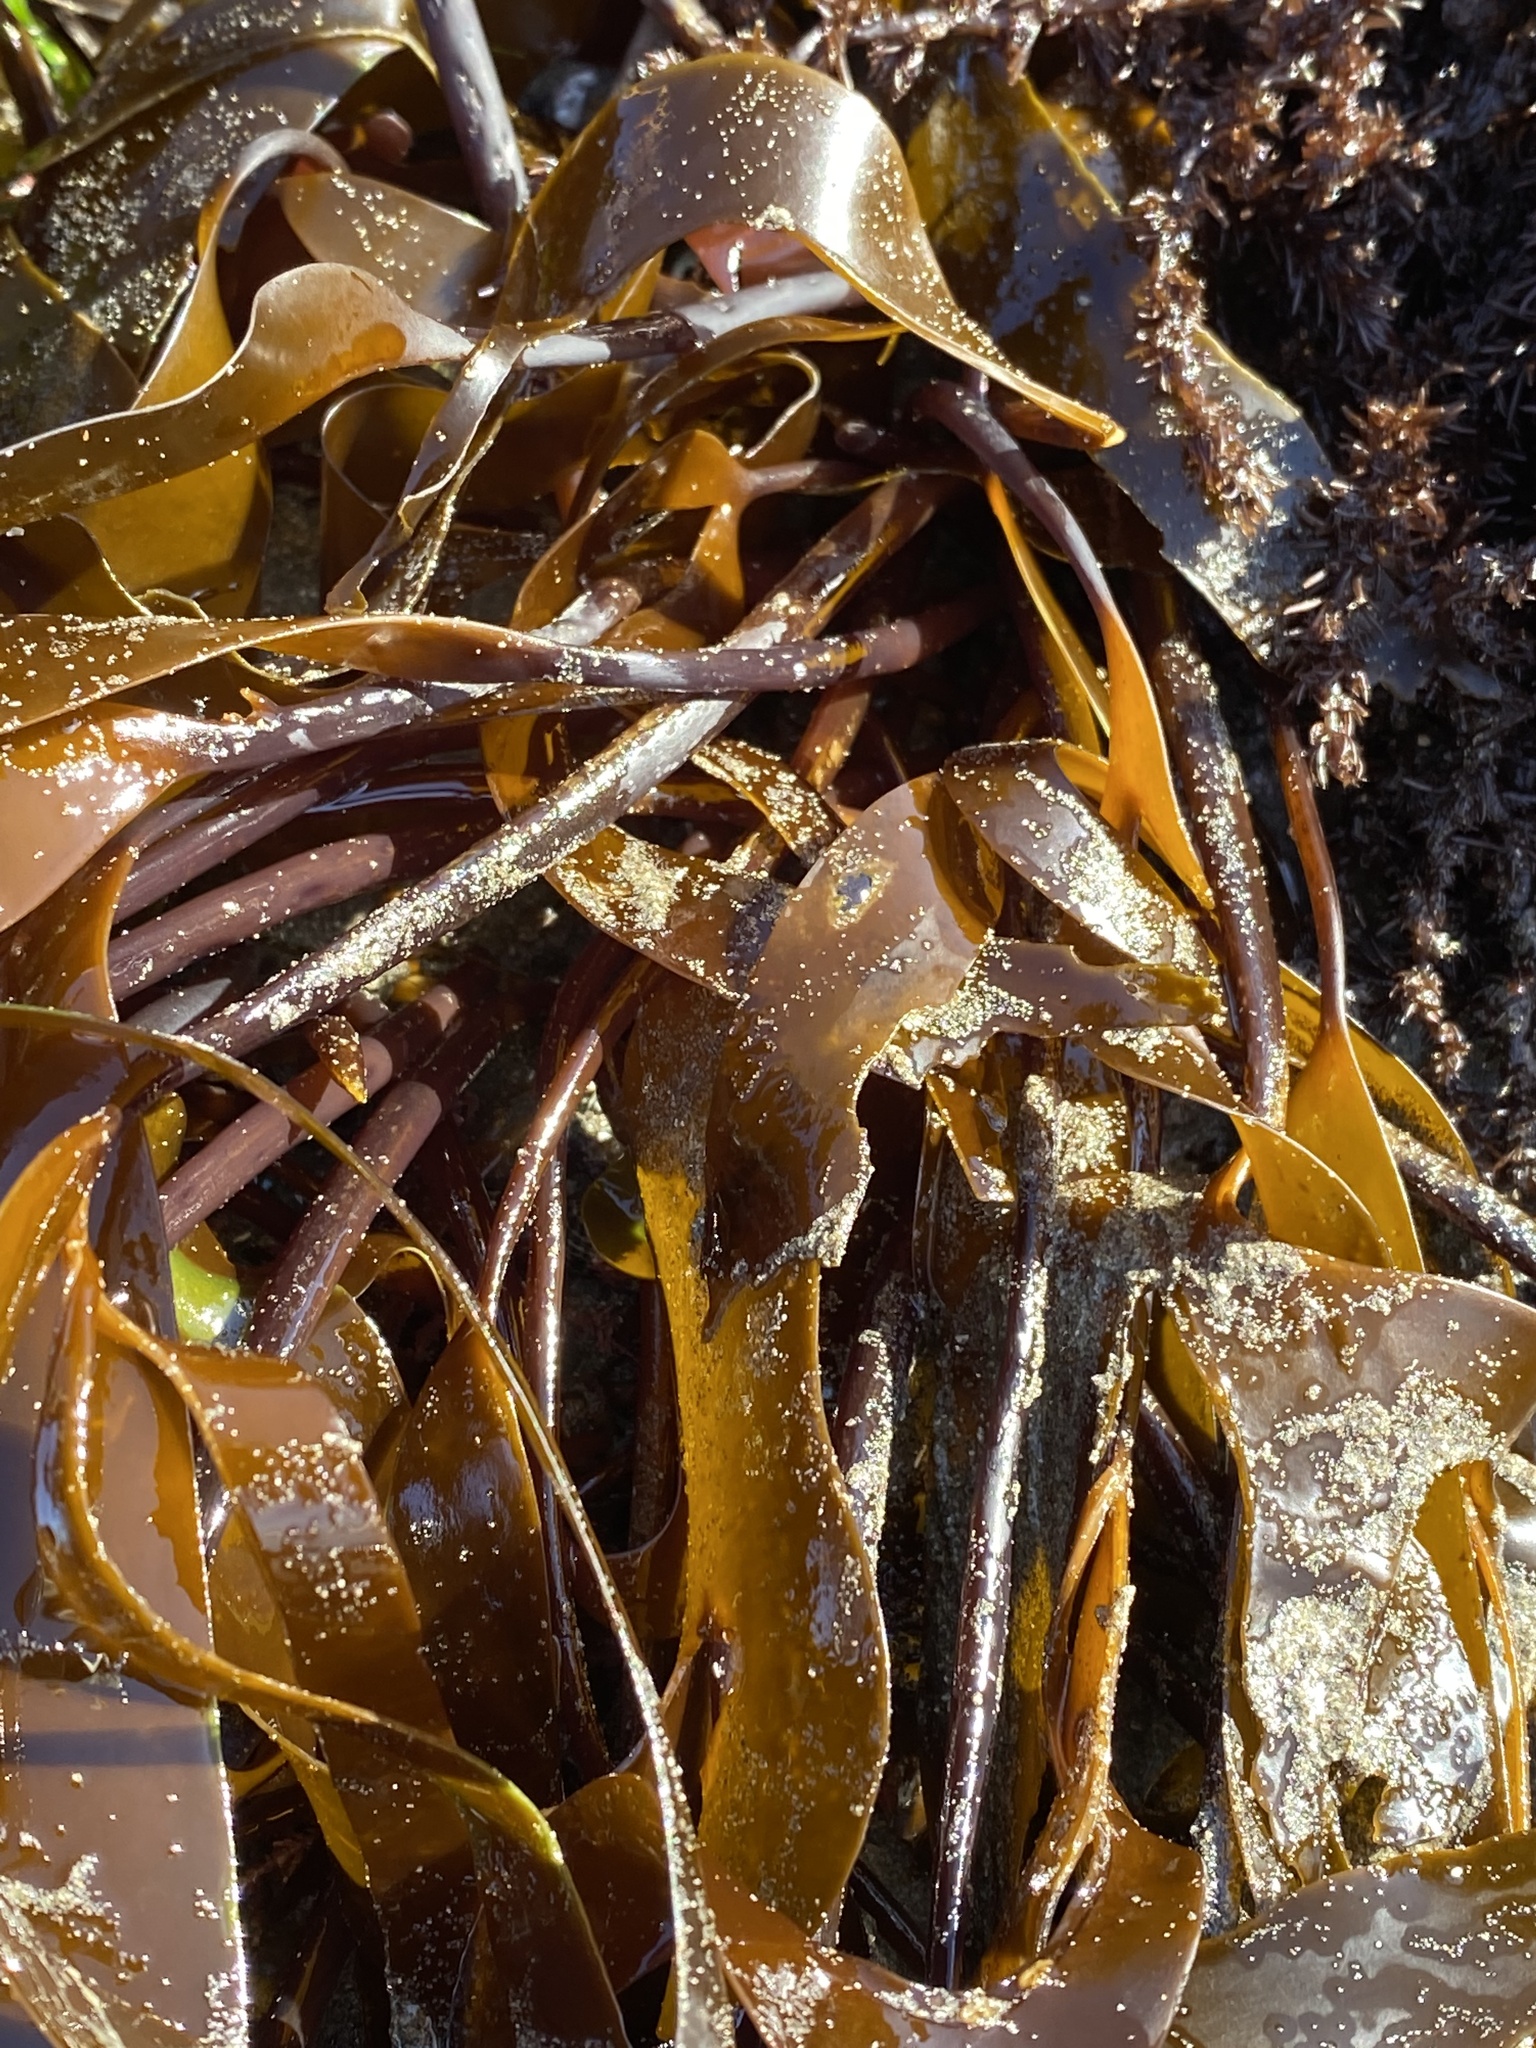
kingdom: Chromista
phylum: Ochrophyta
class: Phaeophyceae
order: Laminariales
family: Laminariaceae
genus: Laminaria
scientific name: Laminaria sinclairii
